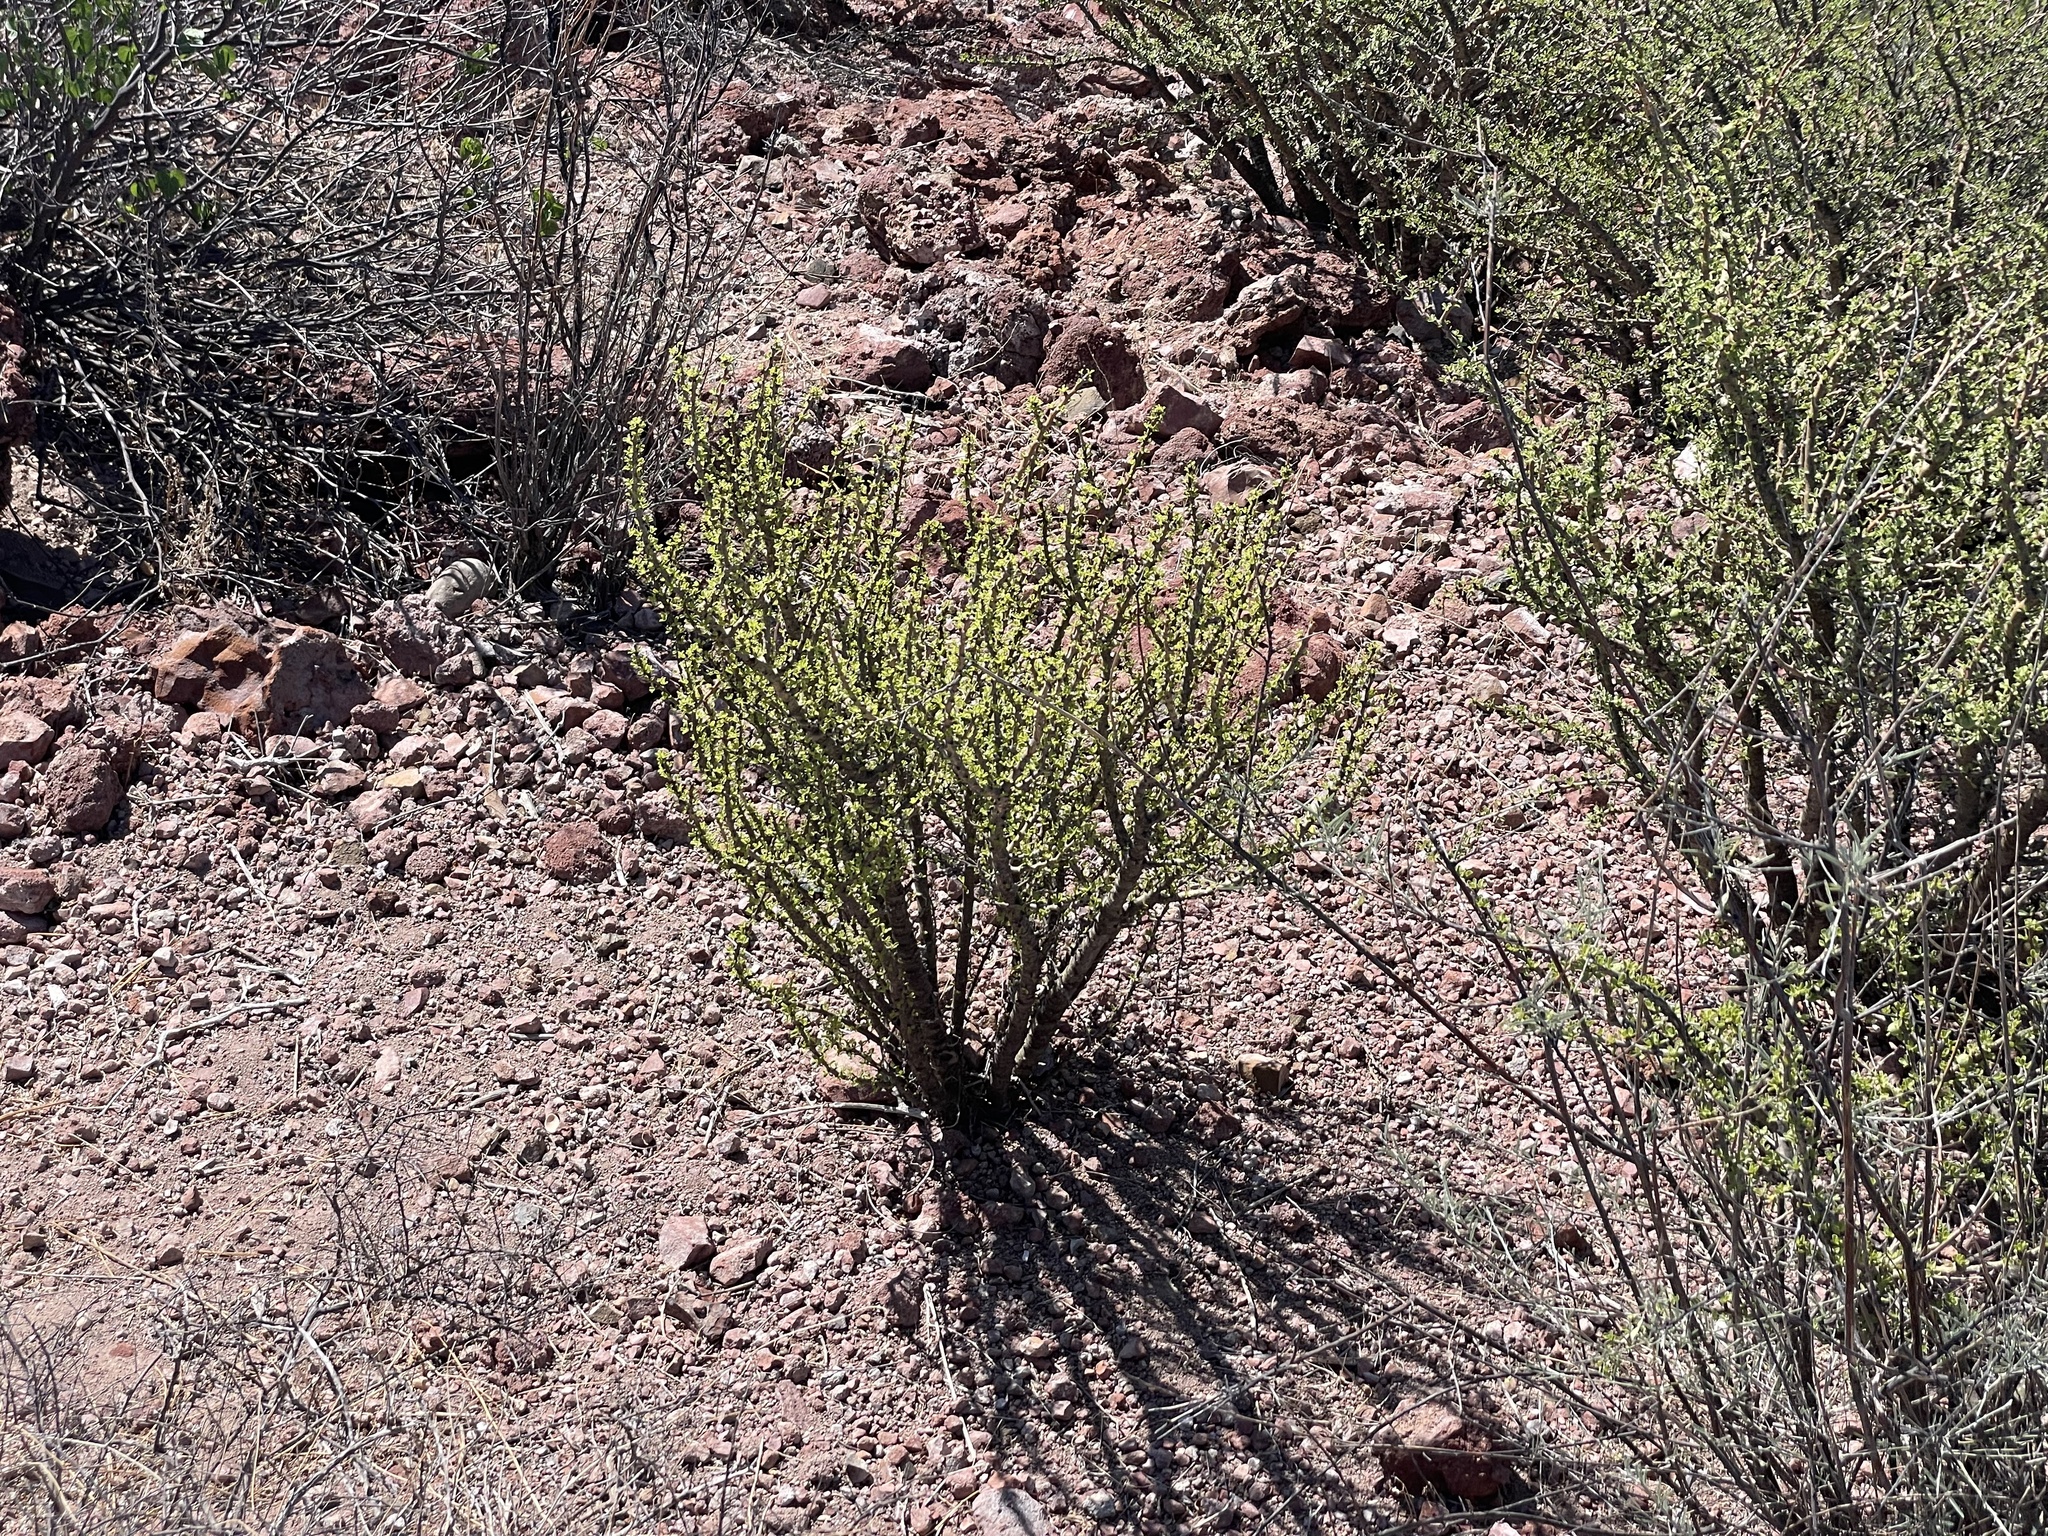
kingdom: Plantae
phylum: Tracheophyta
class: Magnoliopsida
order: Malpighiales
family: Euphorbiaceae
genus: Jatropha
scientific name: Jatropha cuneata
